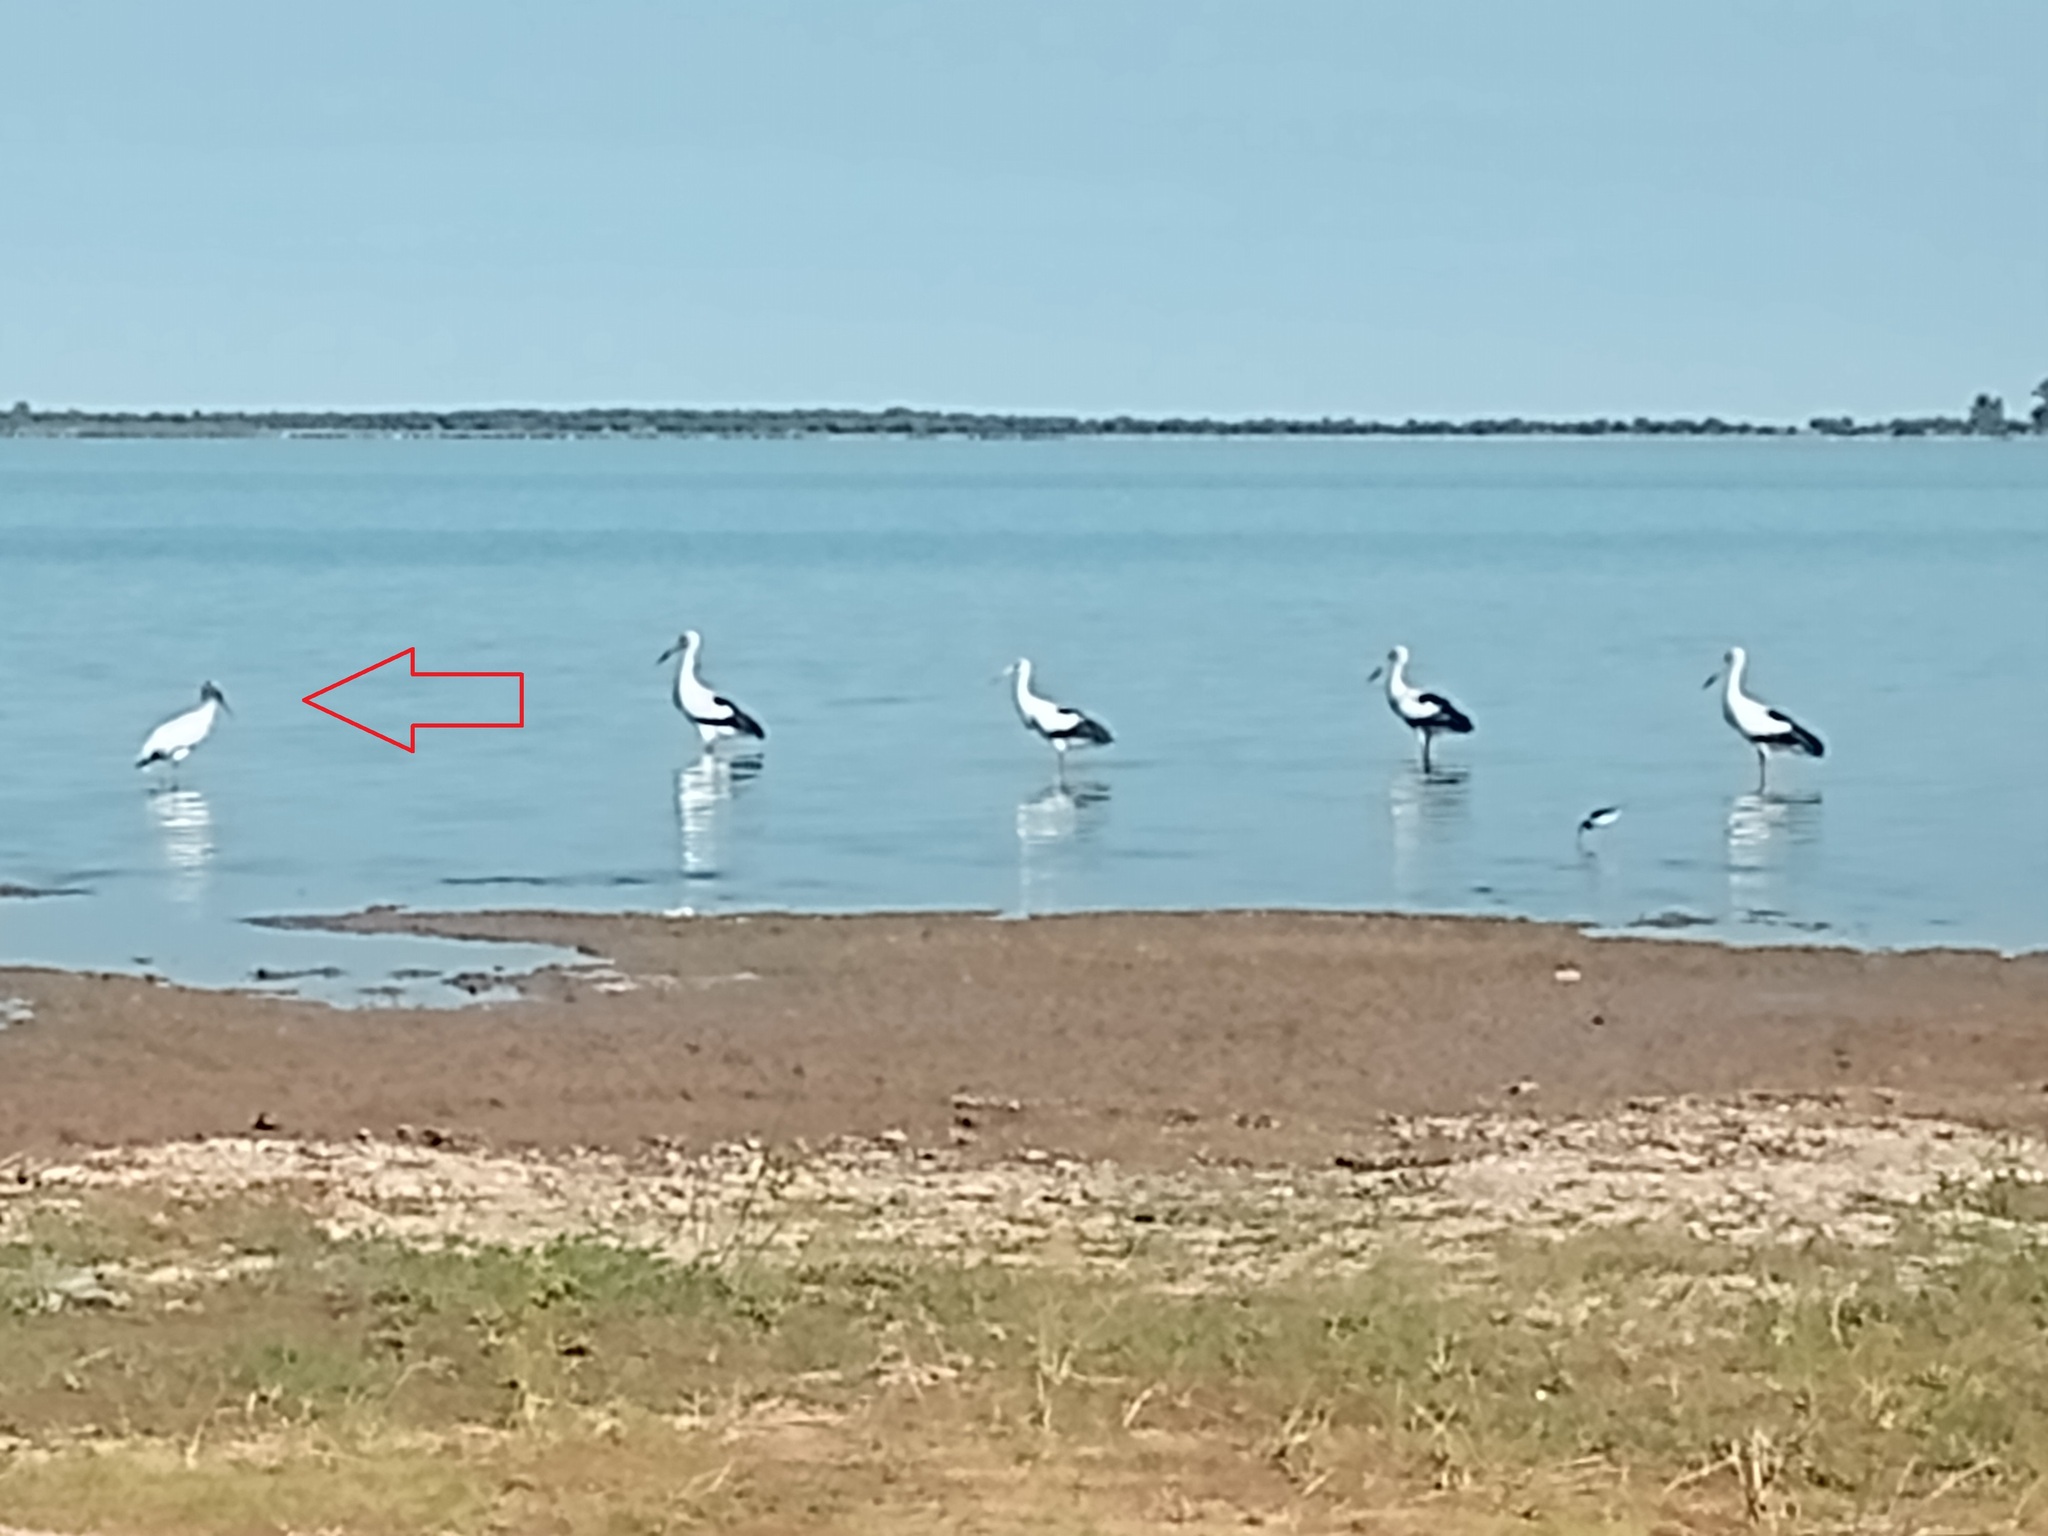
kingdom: Animalia
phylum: Chordata
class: Aves
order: Ciconiiformes
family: Ciconiidae
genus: Mycteria
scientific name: Mycteria americana
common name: Wood stork
